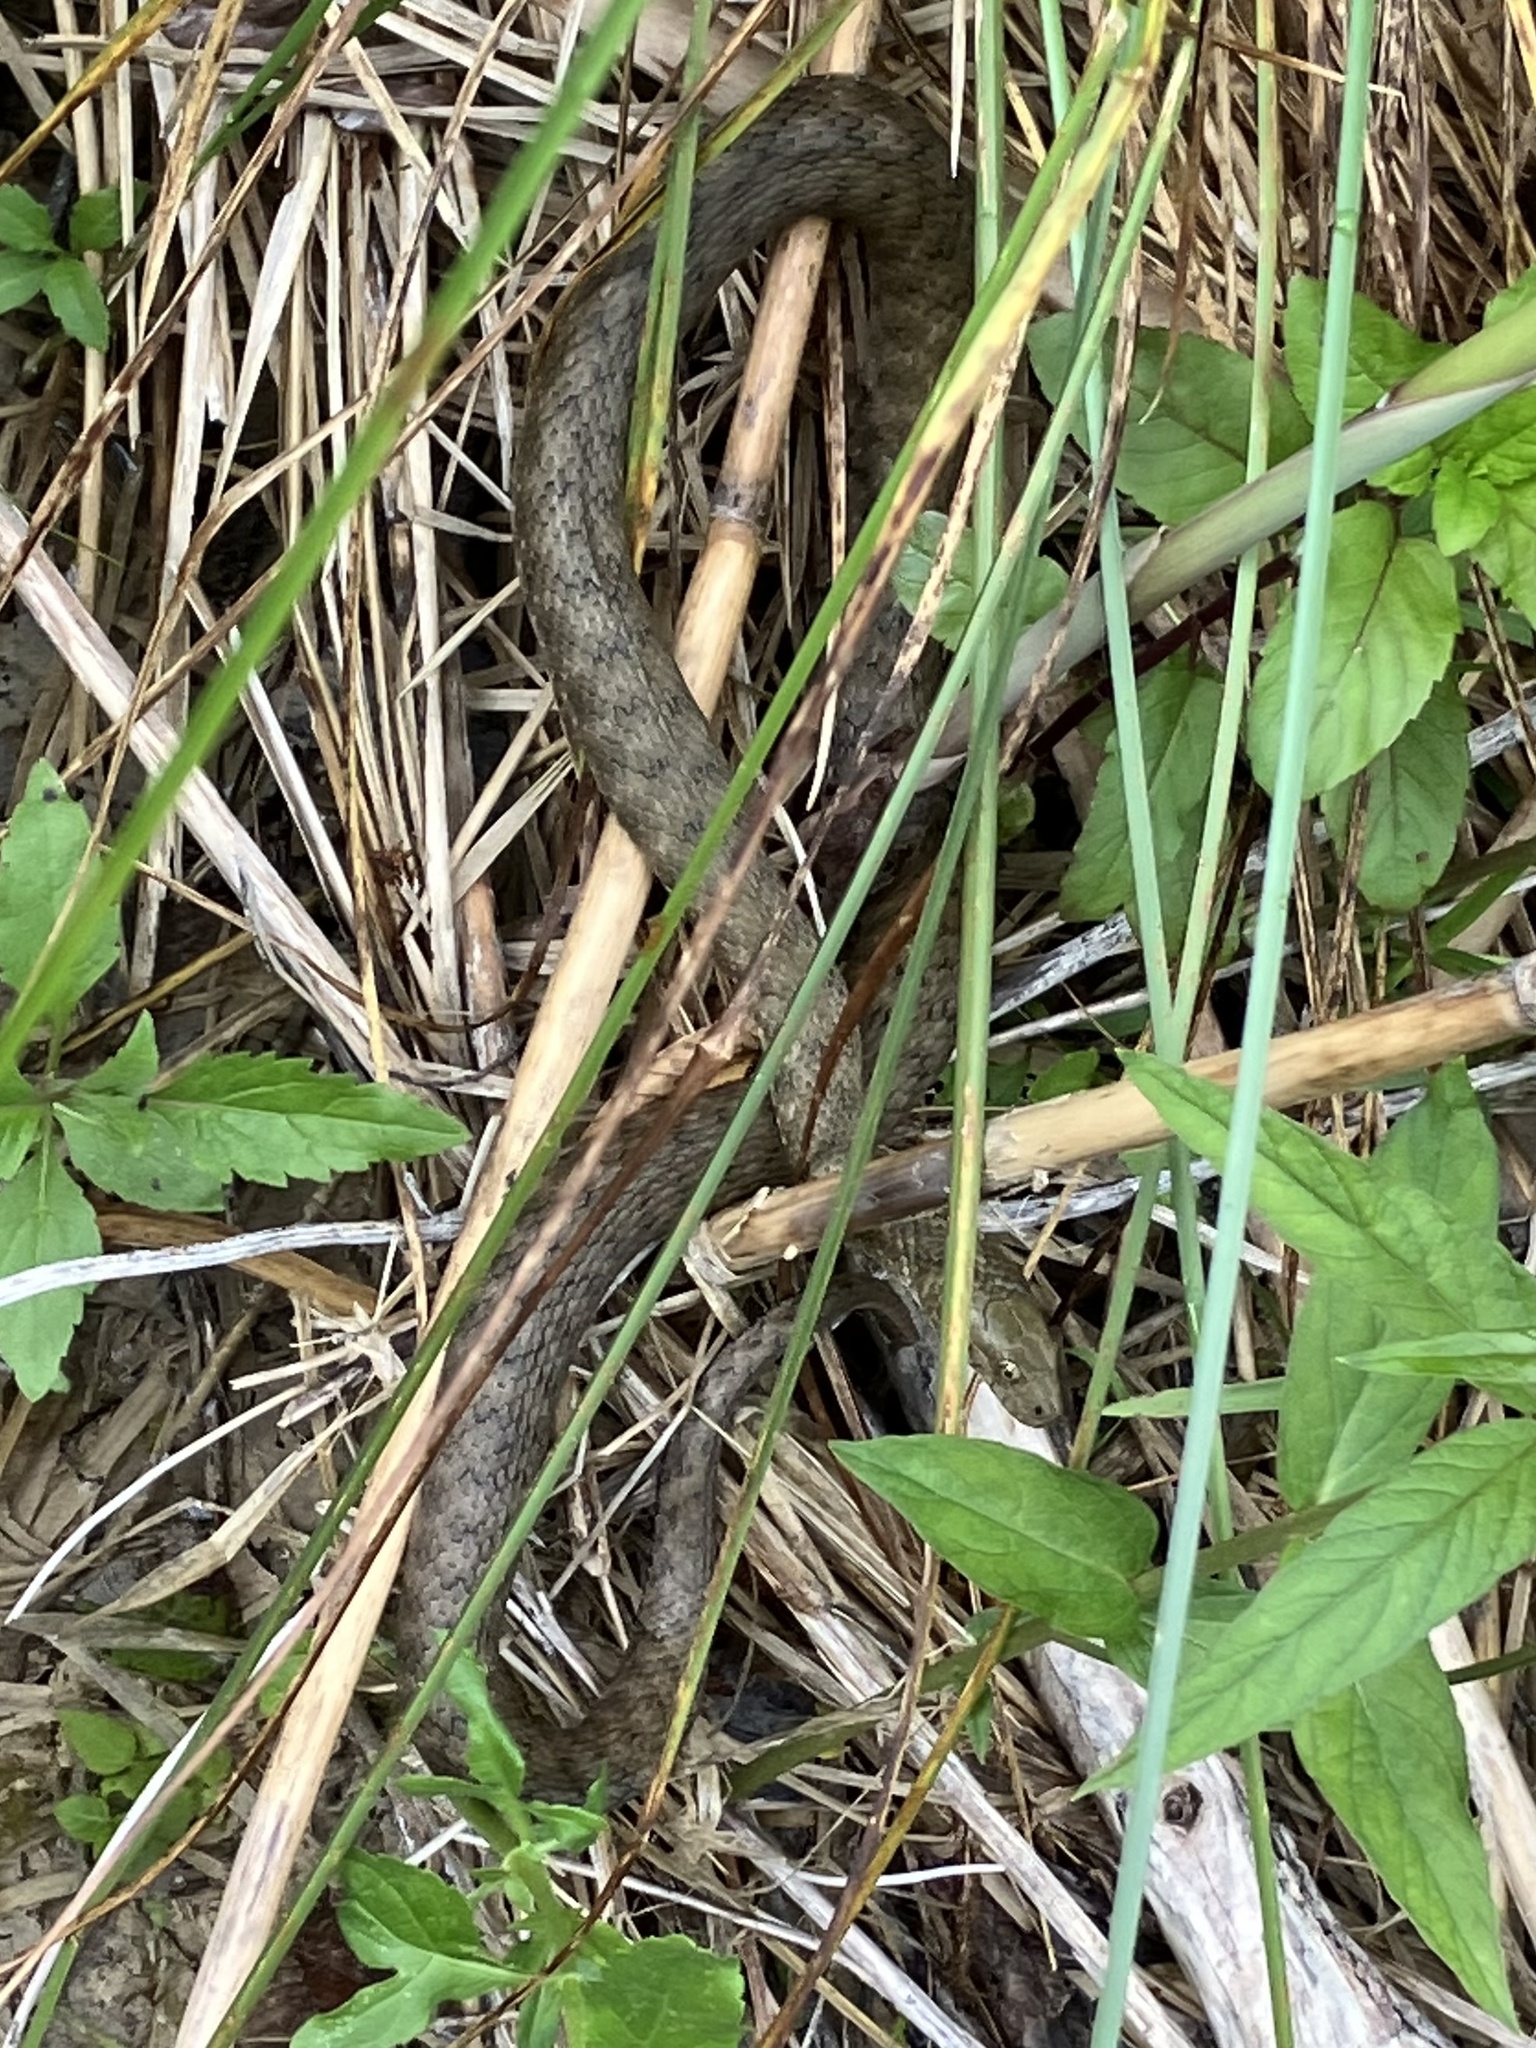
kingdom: Animalia
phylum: Chordata
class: Squamata
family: Colubridae
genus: Natrix
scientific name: Natrix tessellata
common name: Dice snake
